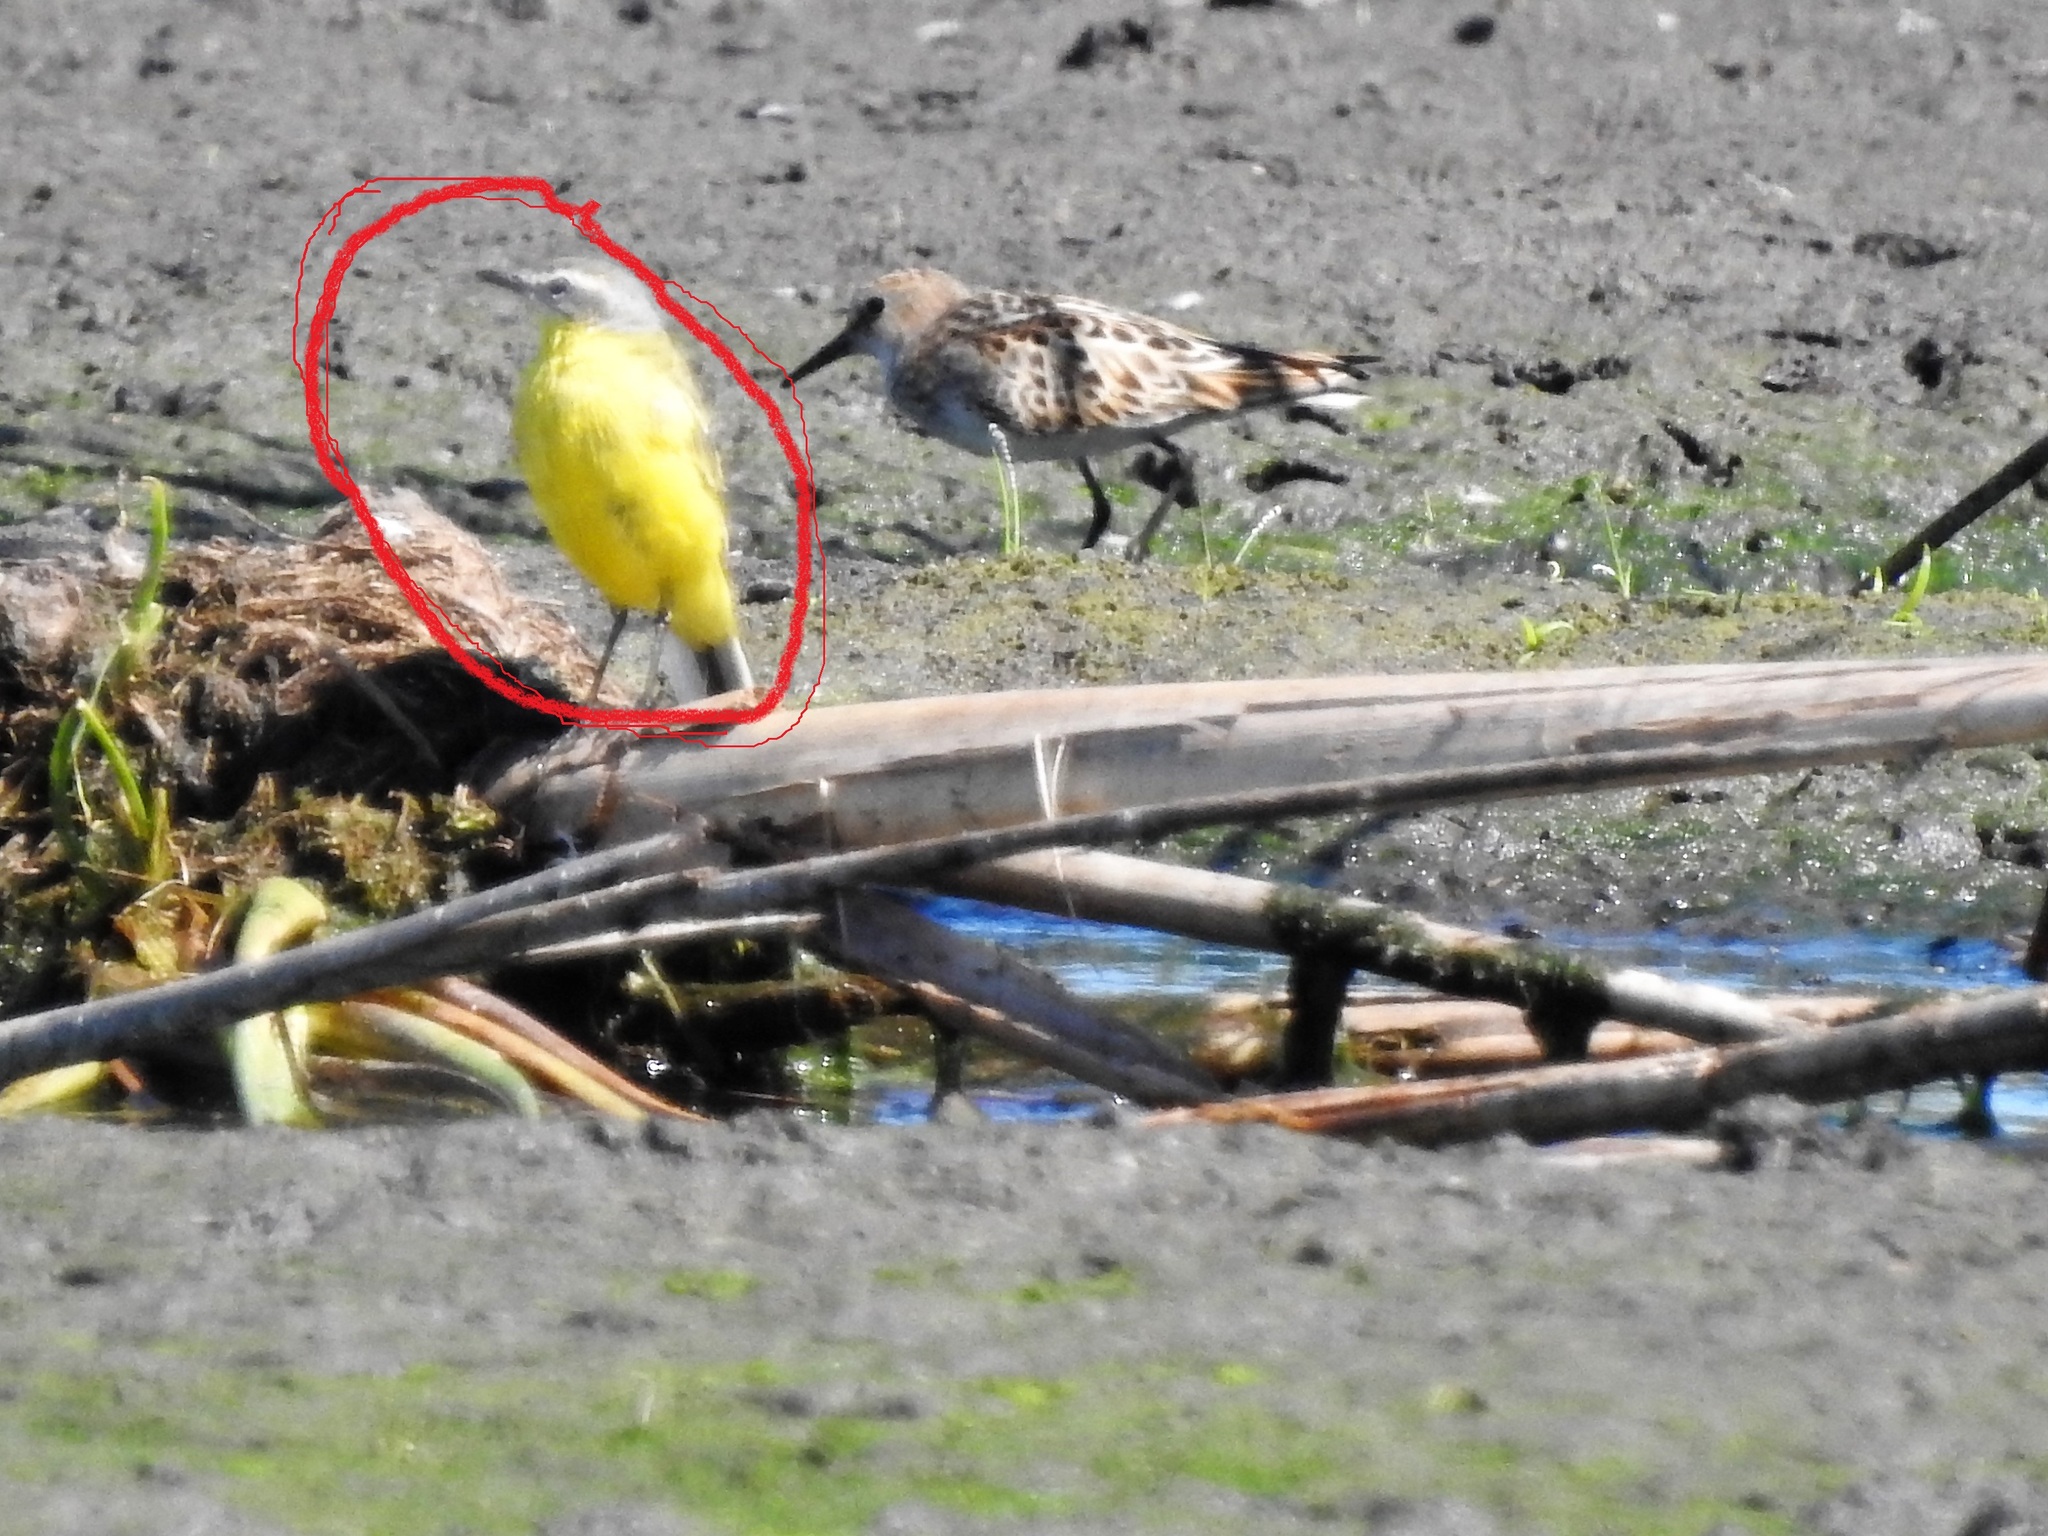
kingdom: Animalia
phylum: Chordata
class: Aves
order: Passeriformes
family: Motacillidae
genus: Motacilla
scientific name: Motacilla flava
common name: Western yellow wagtail
